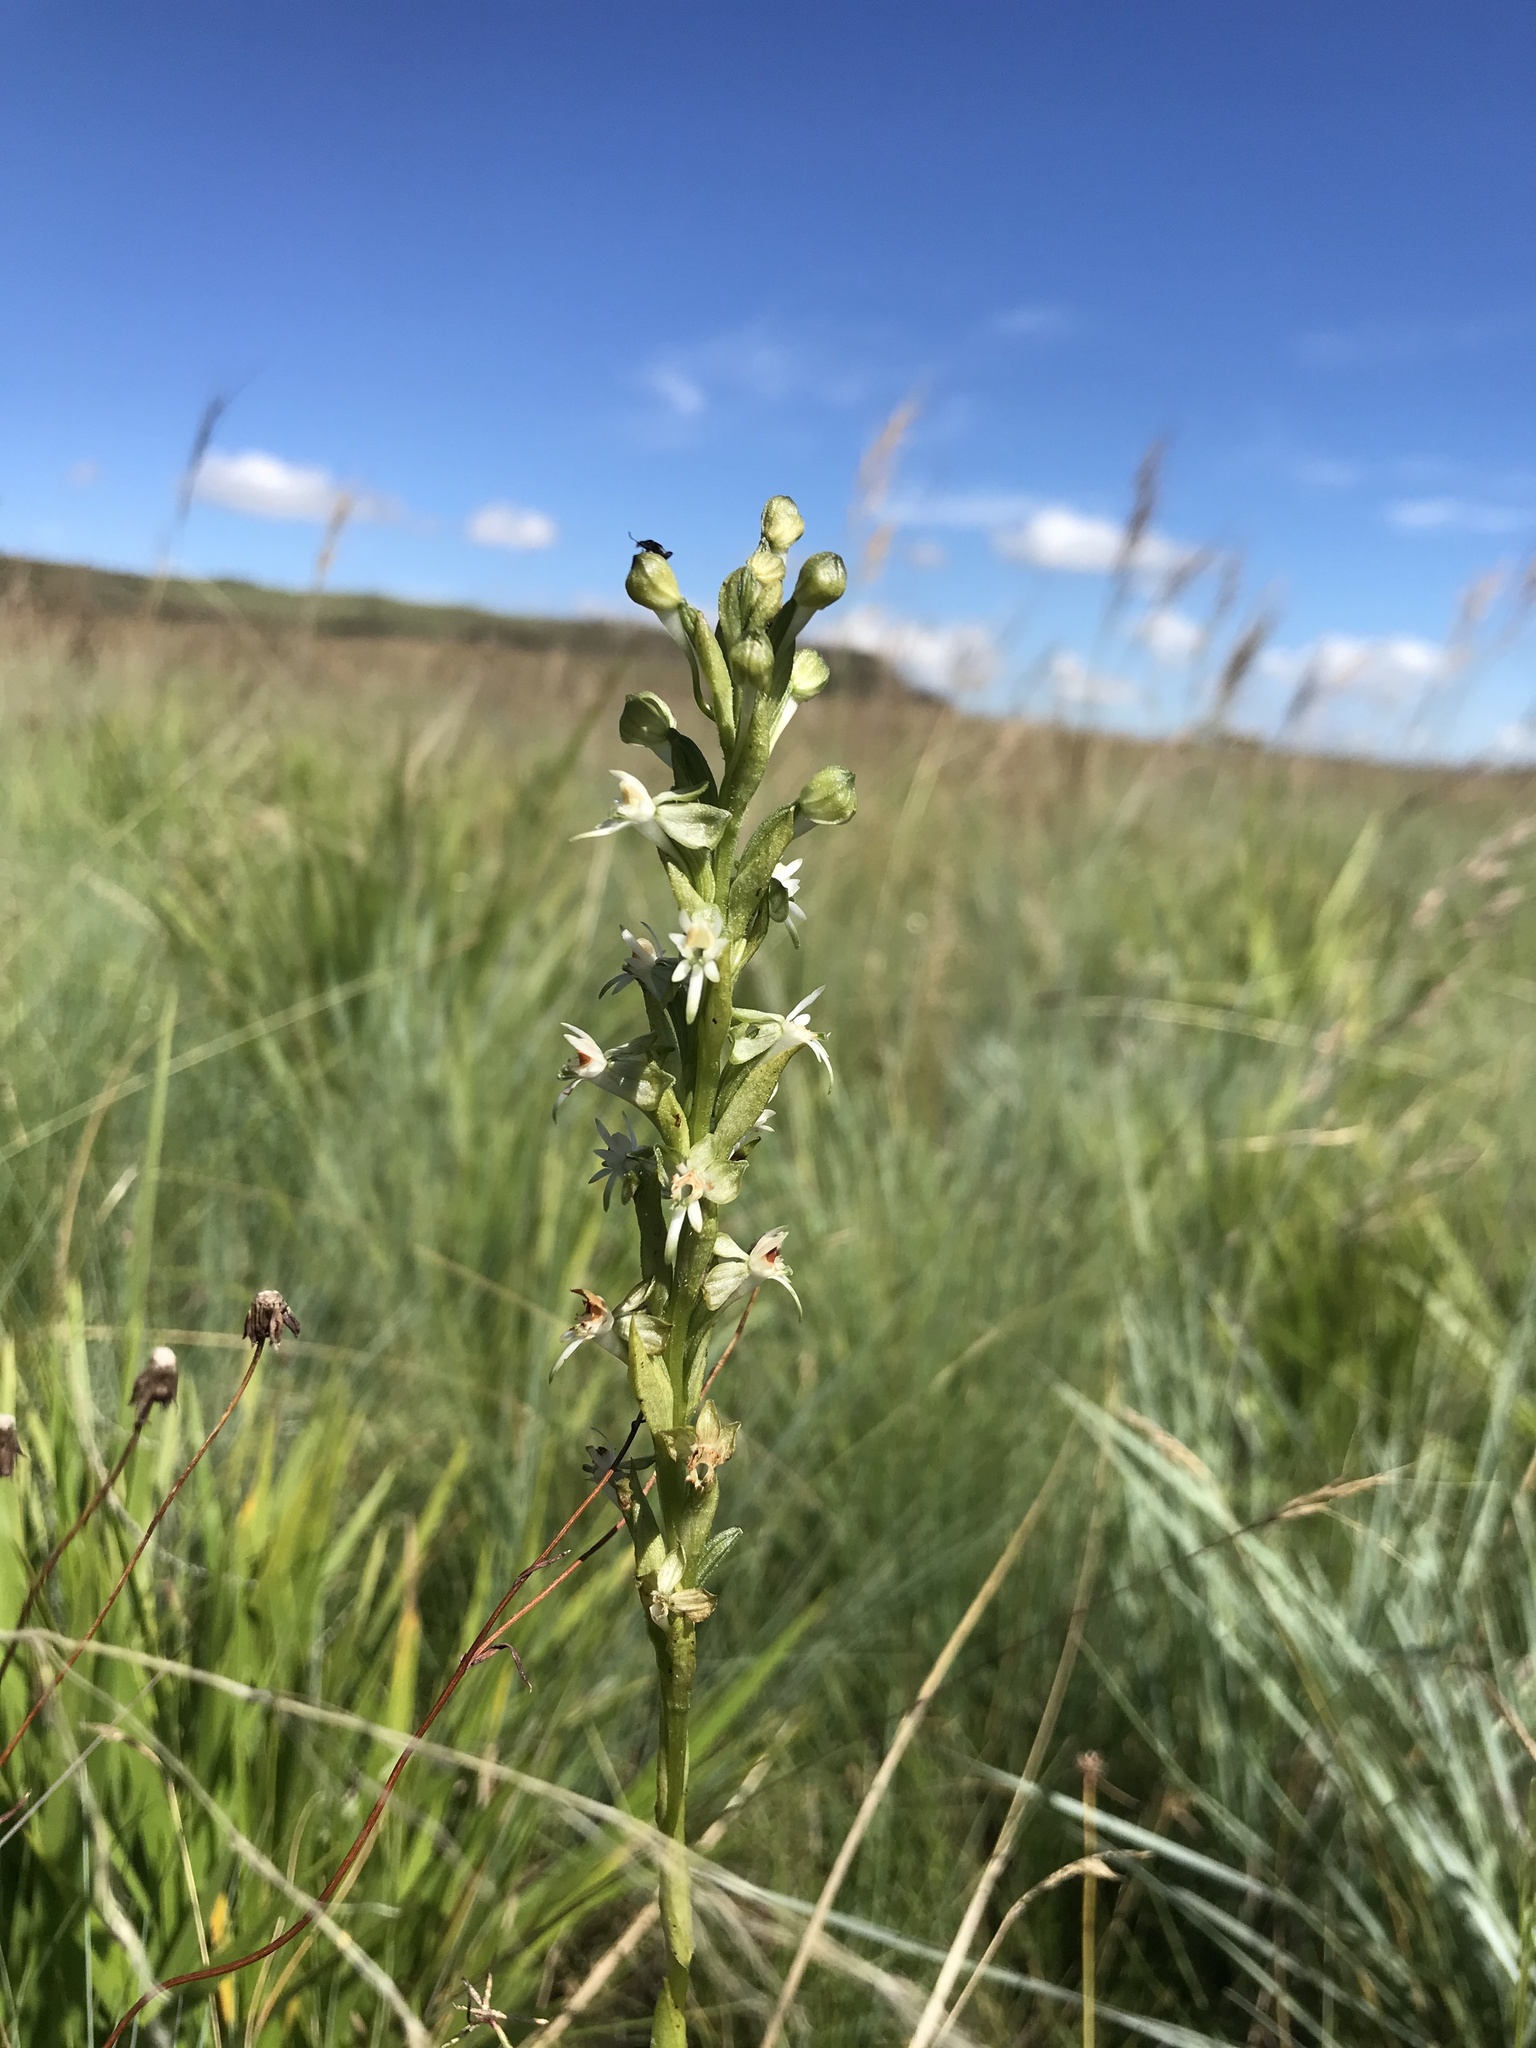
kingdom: Plantae
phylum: Tracheophyta
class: Liliopsida
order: Asparagales
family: Orchidaceae
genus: Habenaria
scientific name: Habenaria dives
